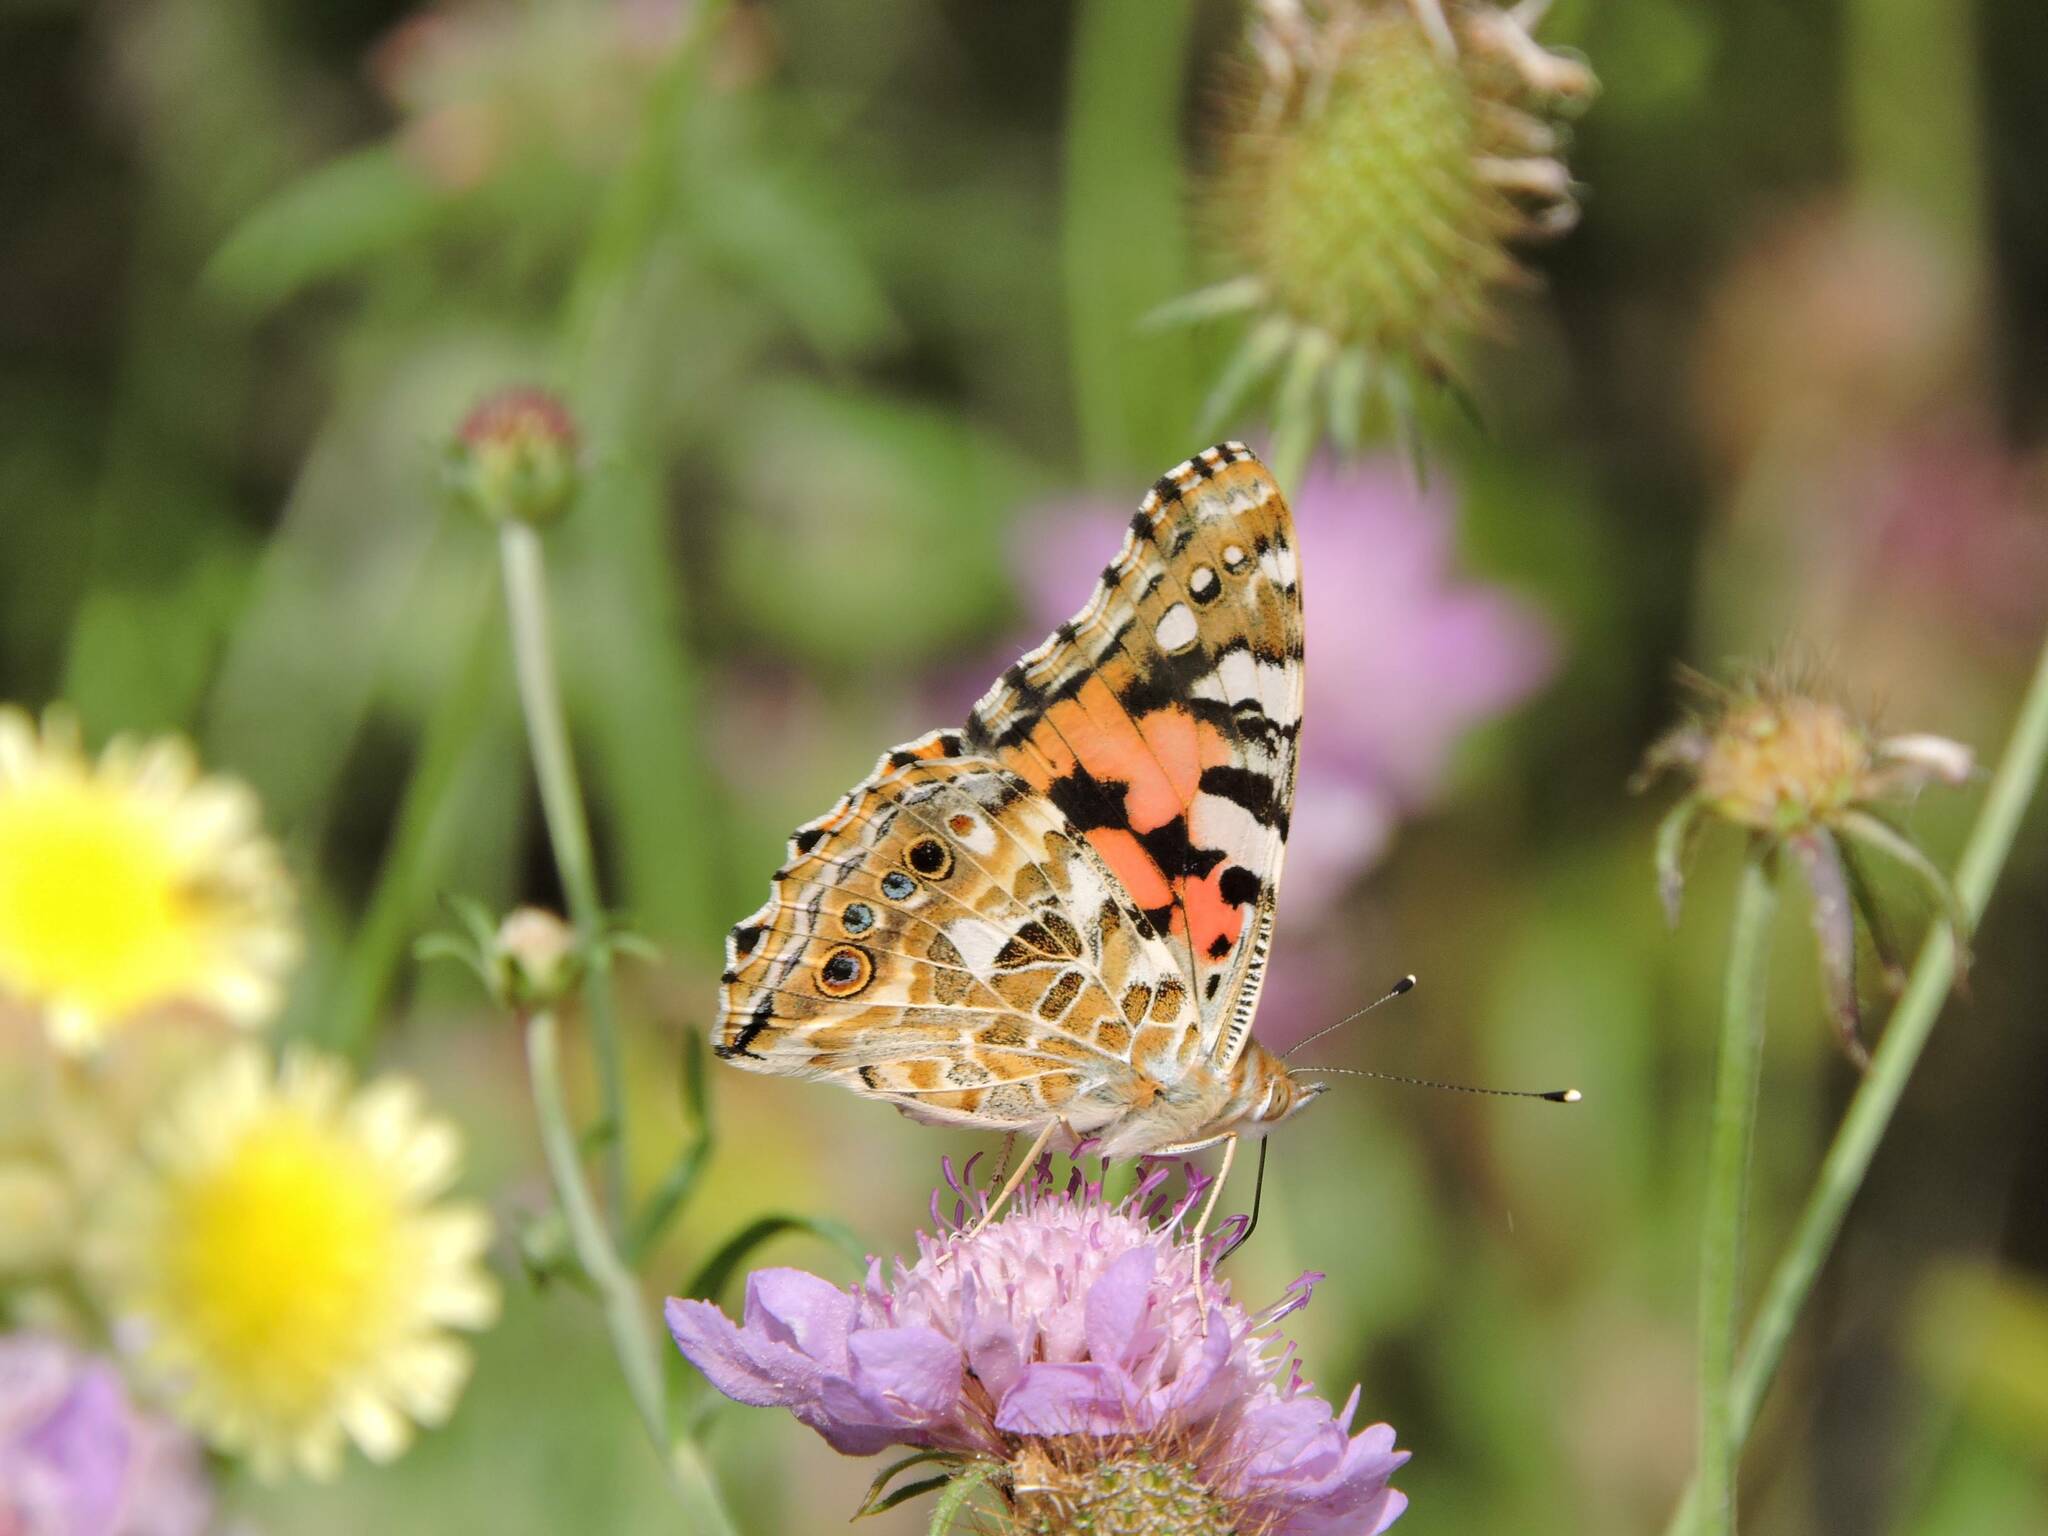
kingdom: Animalia
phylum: Arthropoda
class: Insecta
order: Lepidoptera
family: Nymphalidae
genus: Vanessa
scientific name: Vanessa cardui
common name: Painted lady
